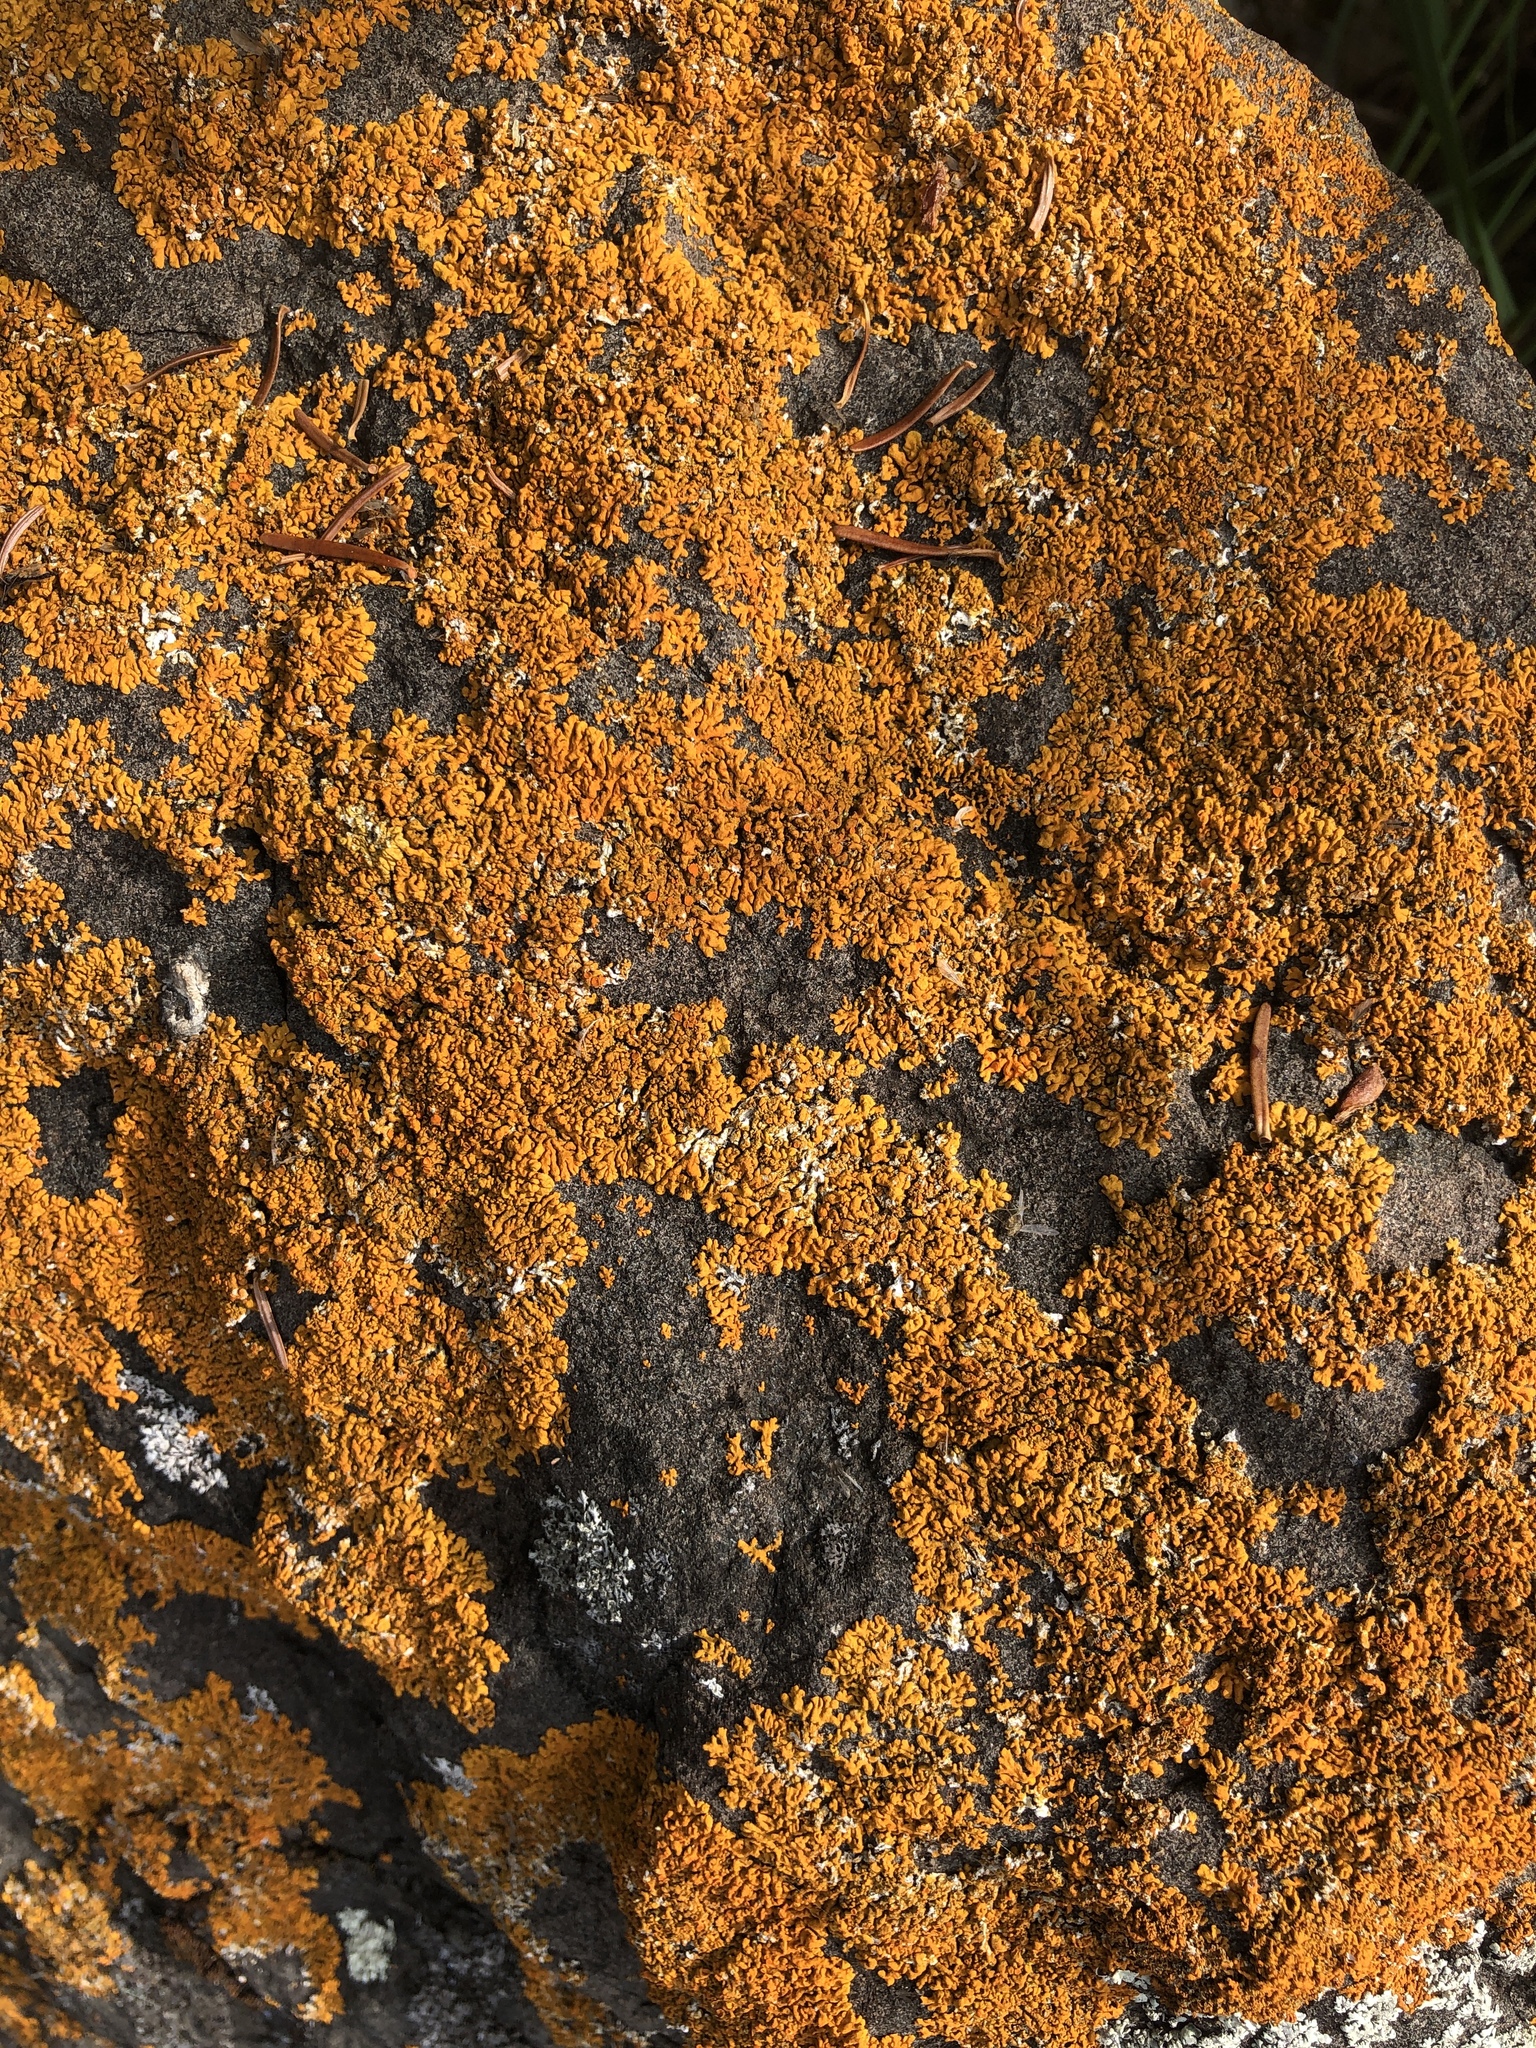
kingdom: Fungi
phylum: Ascomycota
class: Lecanoromycetes
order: Teloschistales
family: Teloschistaceae
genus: Xanthoria
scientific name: Xanthoria elegans
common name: Elegant sunburst lichen
